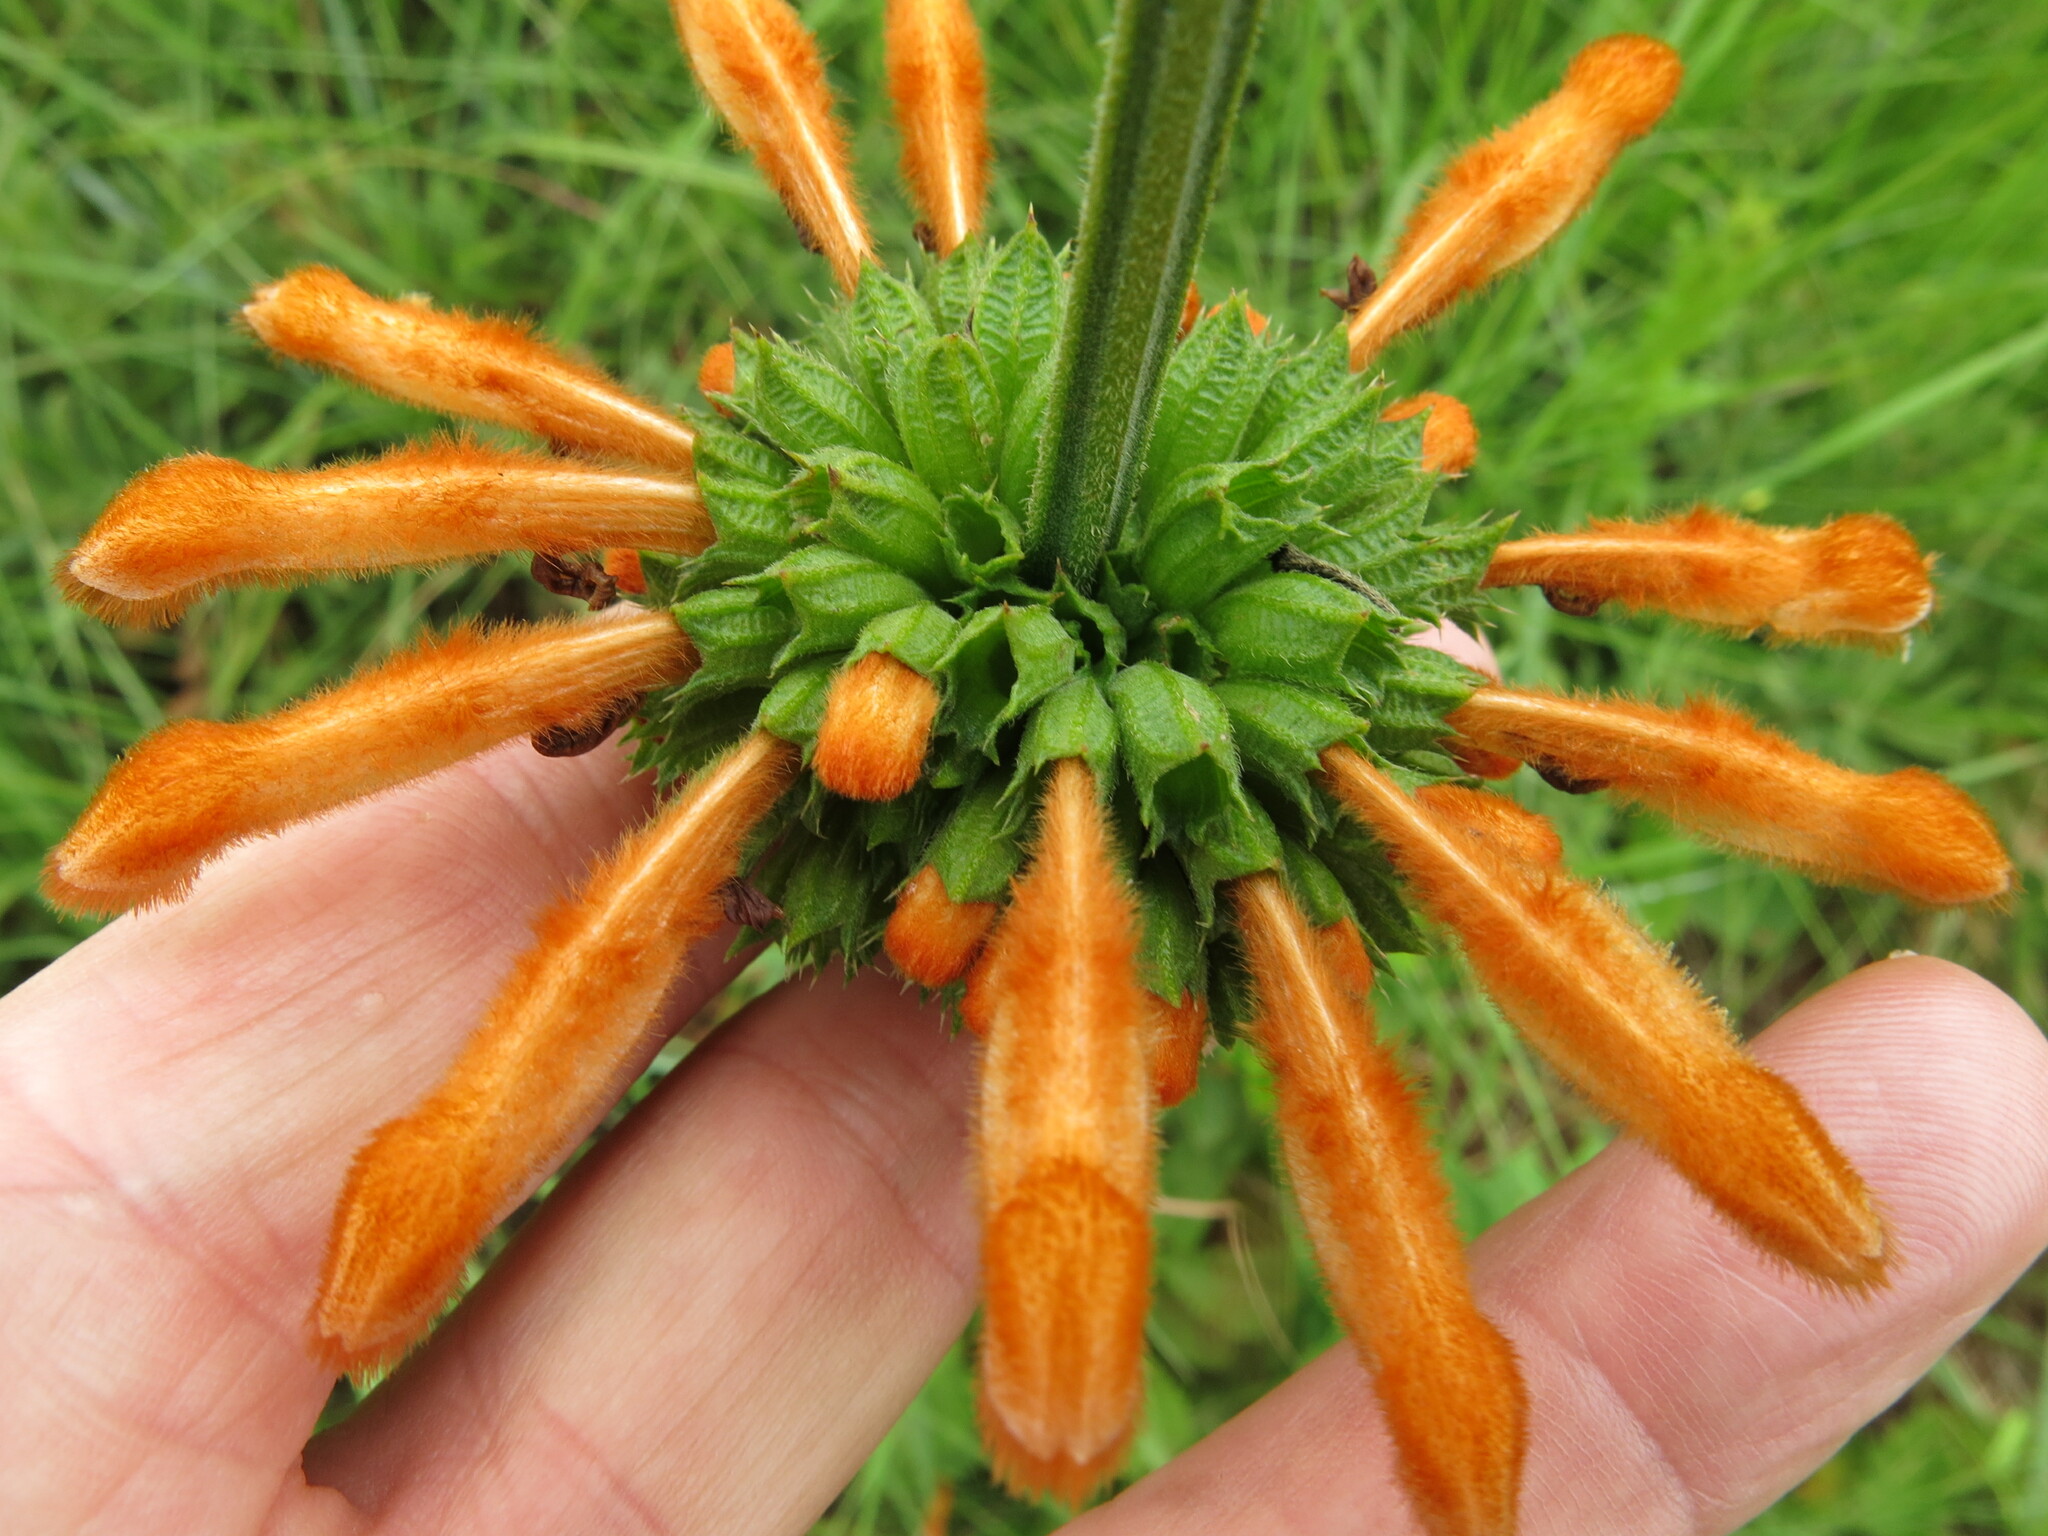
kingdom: Plantae
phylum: Tracheophyta
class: Magnoliopsida
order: Lamiales
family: Lamiaceae
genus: Leonotis
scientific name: Leonotis ocymifolia
